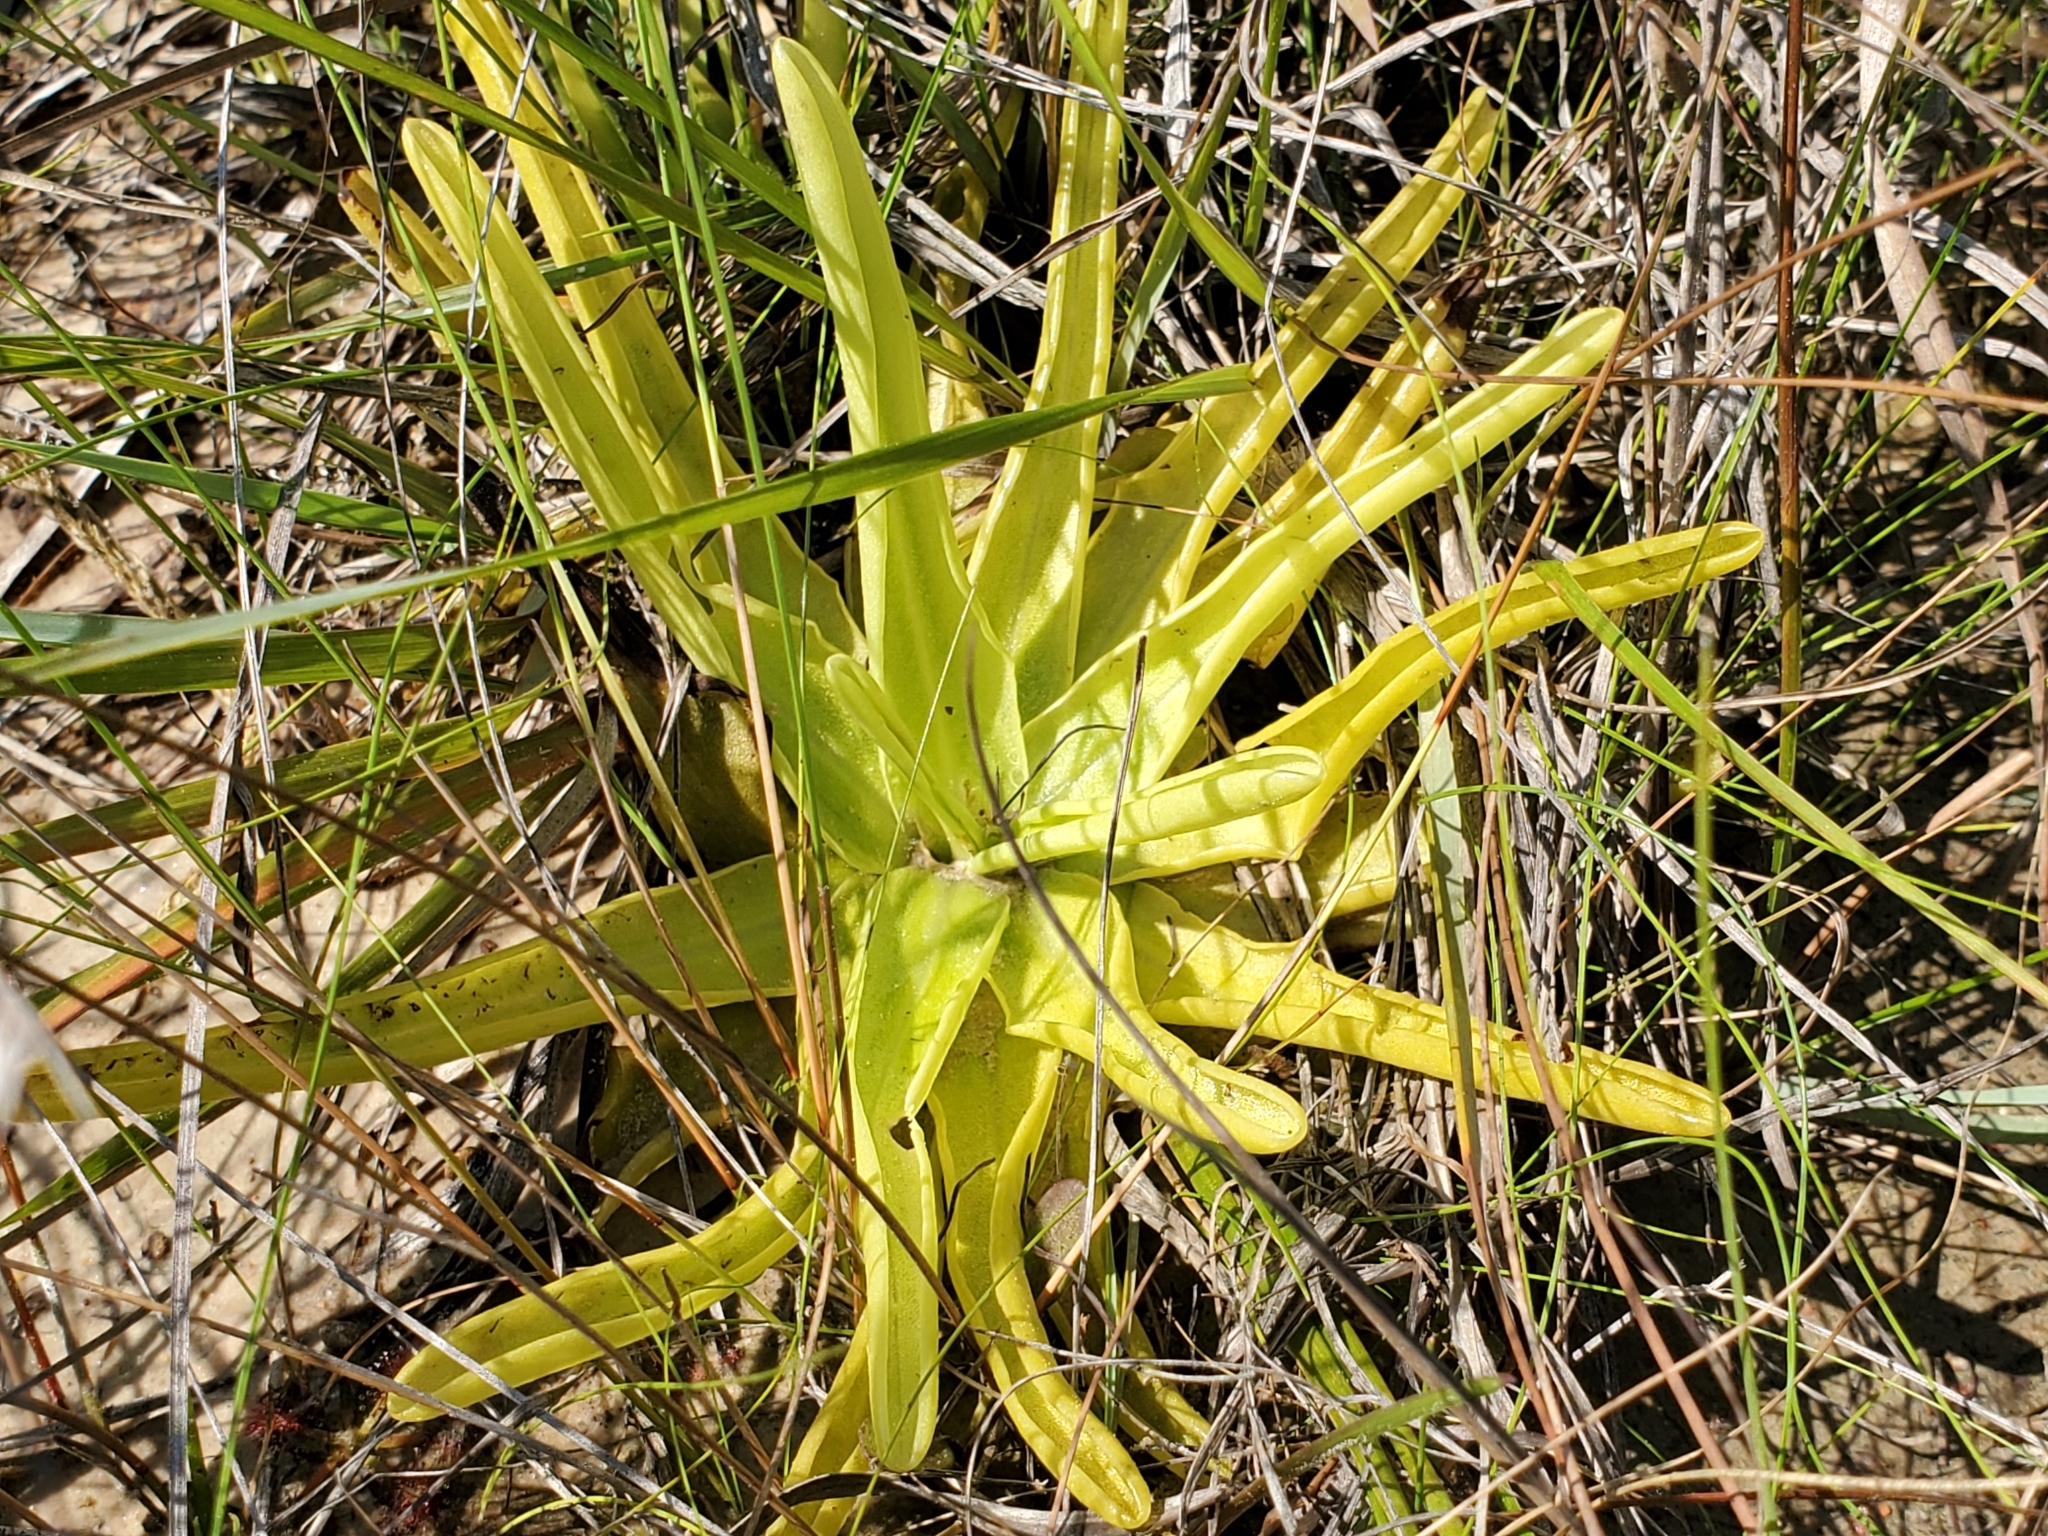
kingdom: Plantae
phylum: Tracheophyta
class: Magnoliopsida
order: Lamiales
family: Lentibulariaceae
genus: Pinguicula
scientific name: Pinguicula lutea
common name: Yellow butterwort
